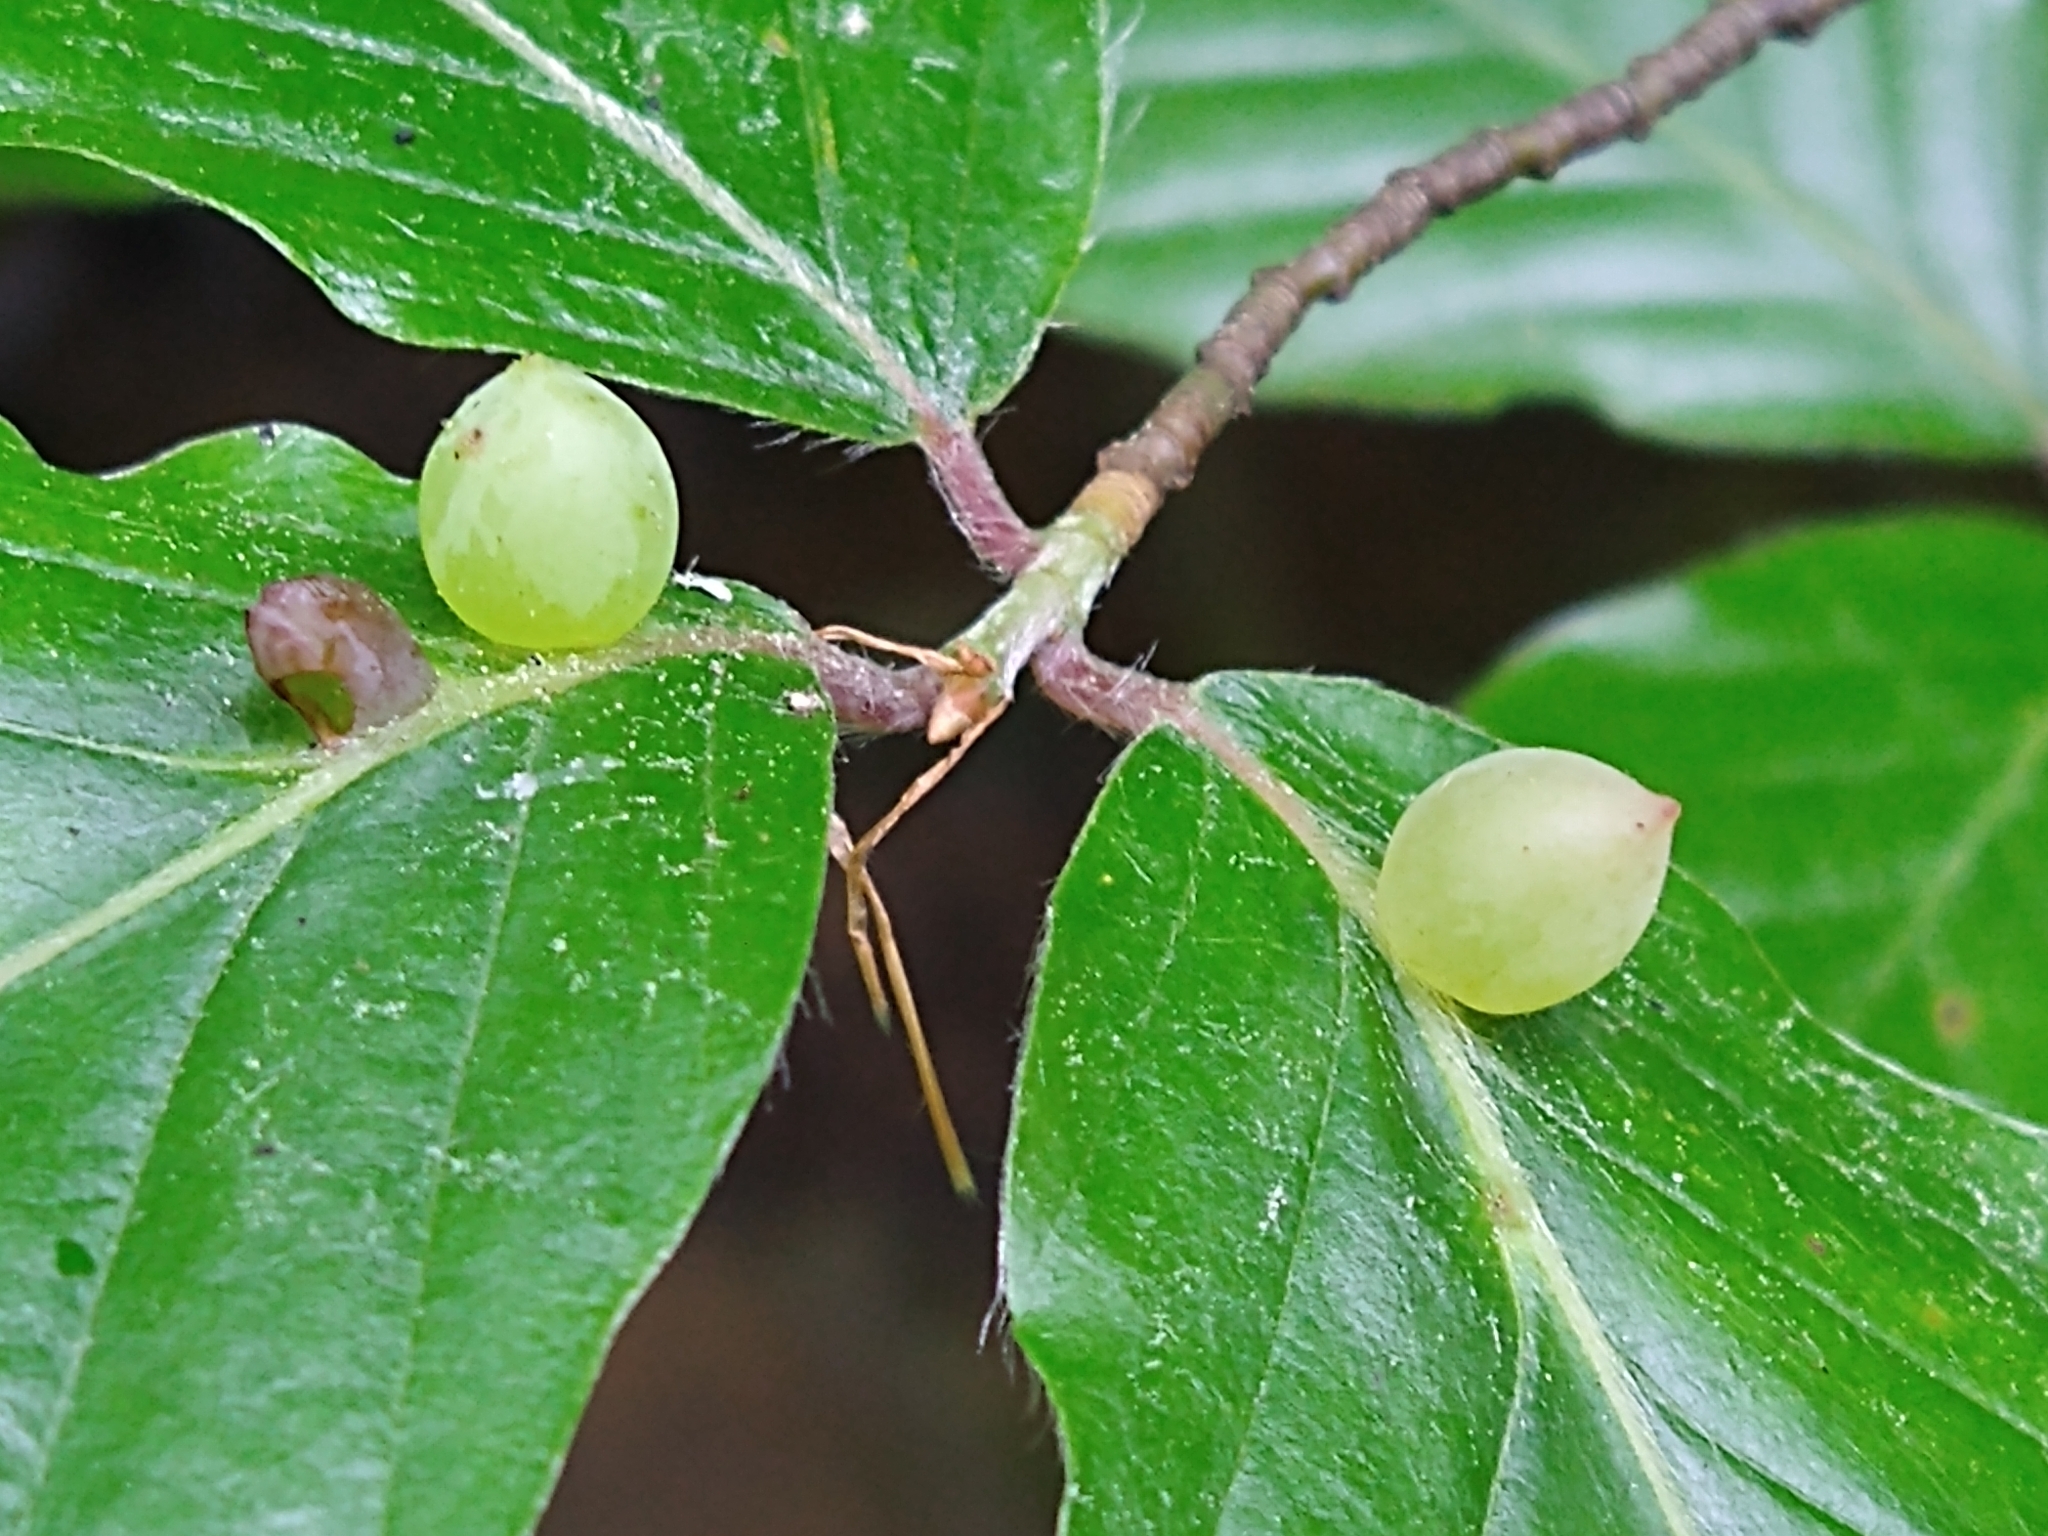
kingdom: Animalia
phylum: Arthropoda
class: Insecta
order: Diptera
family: Cecidomyiidae
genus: Mikiola
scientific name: Mikiola fagi
